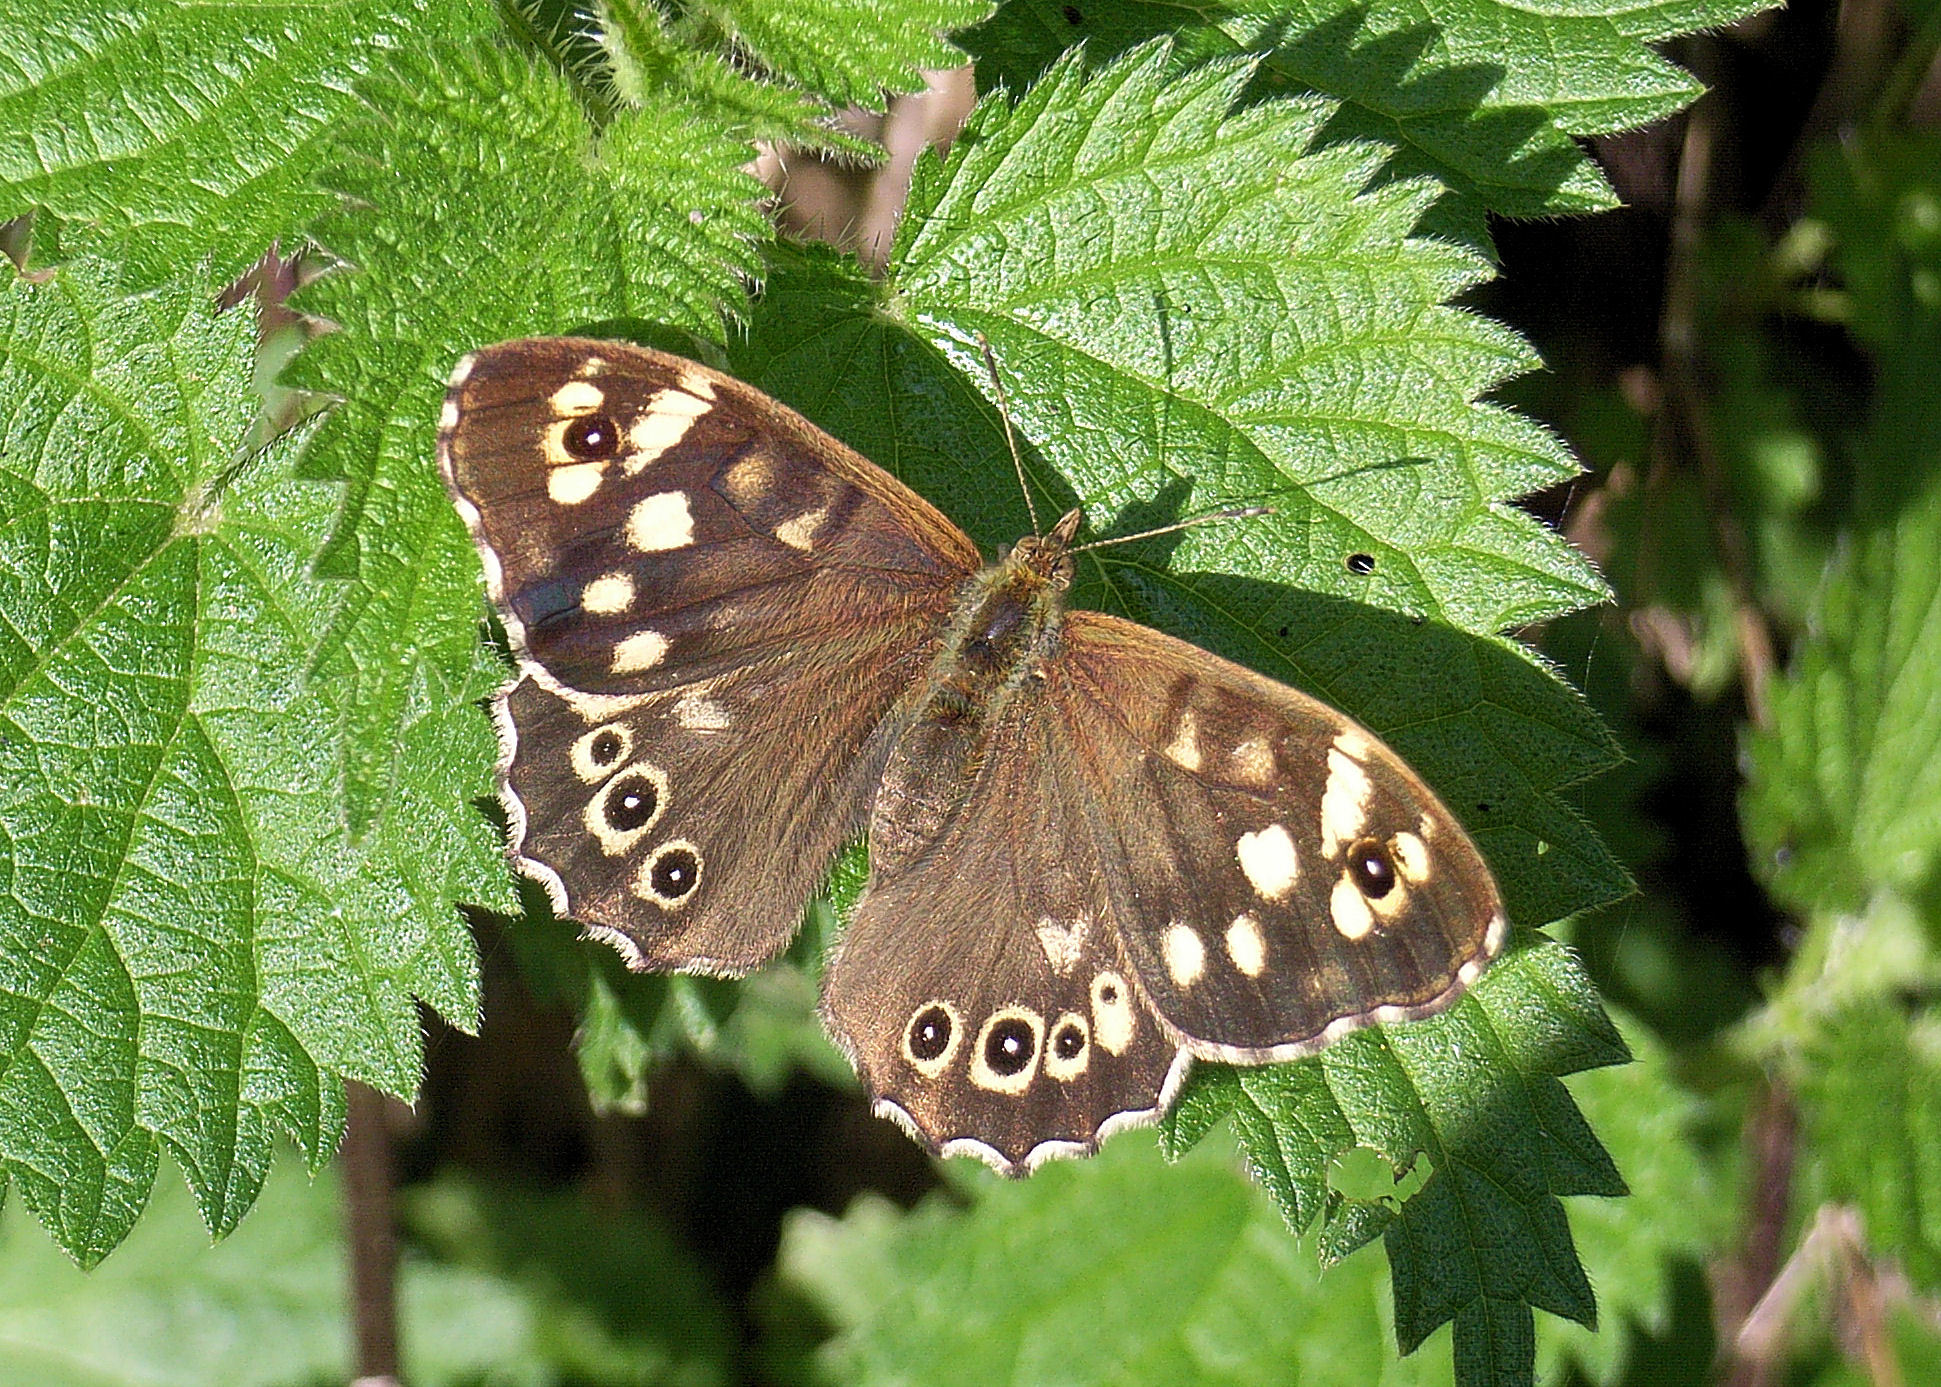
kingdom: Animalia
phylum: Arthropoda
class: Insecta
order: Lepidoptera
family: Nymphalidae
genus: Pararge
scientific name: Pararge aegeria
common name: Speckled wood
